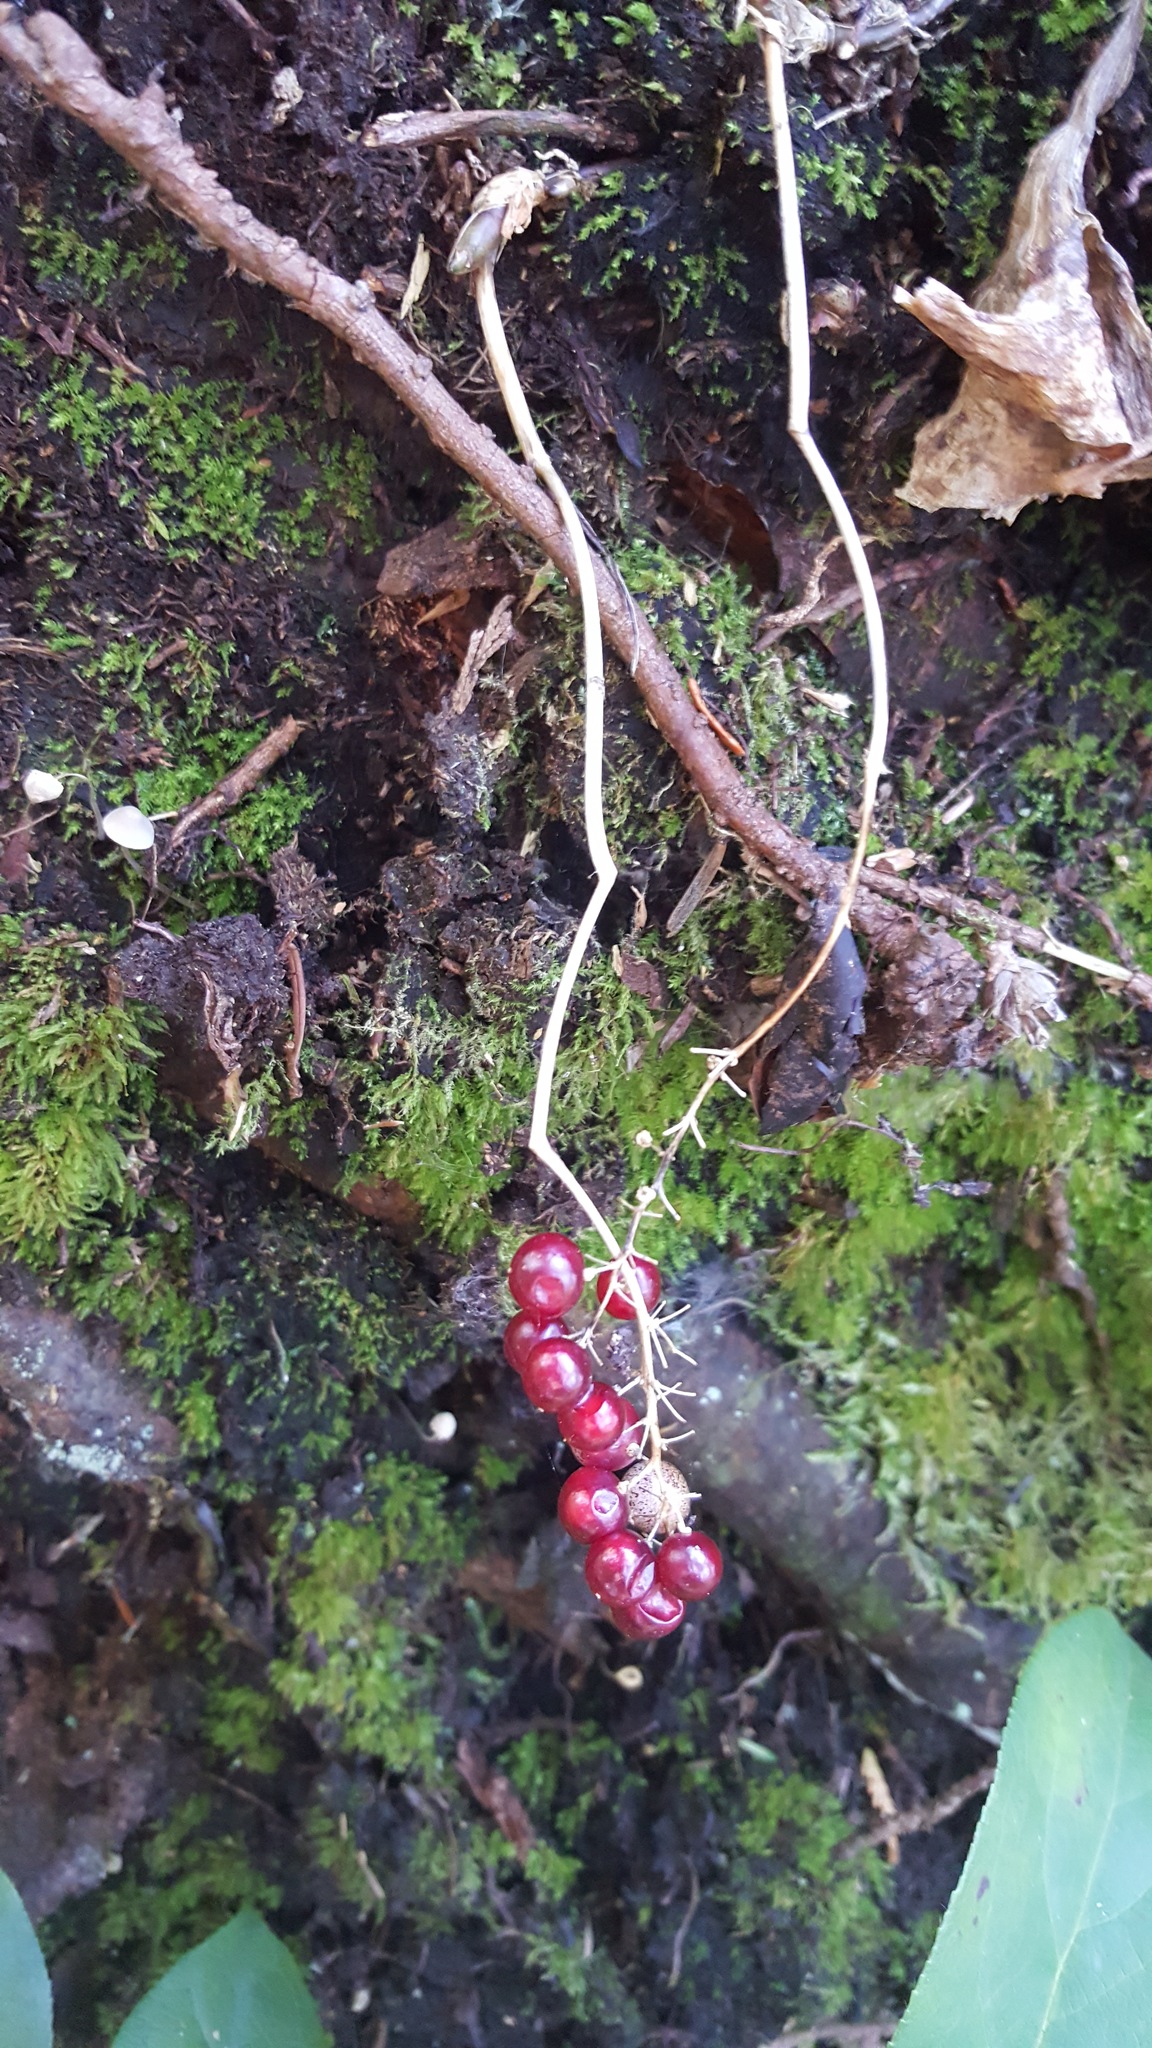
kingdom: Plantae
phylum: Tracheophyta
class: Liliopsida
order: Asparagales
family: Asparagaceae
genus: Maianthemum
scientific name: Maianthemum dilatatum
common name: False lily-of-the-valley
